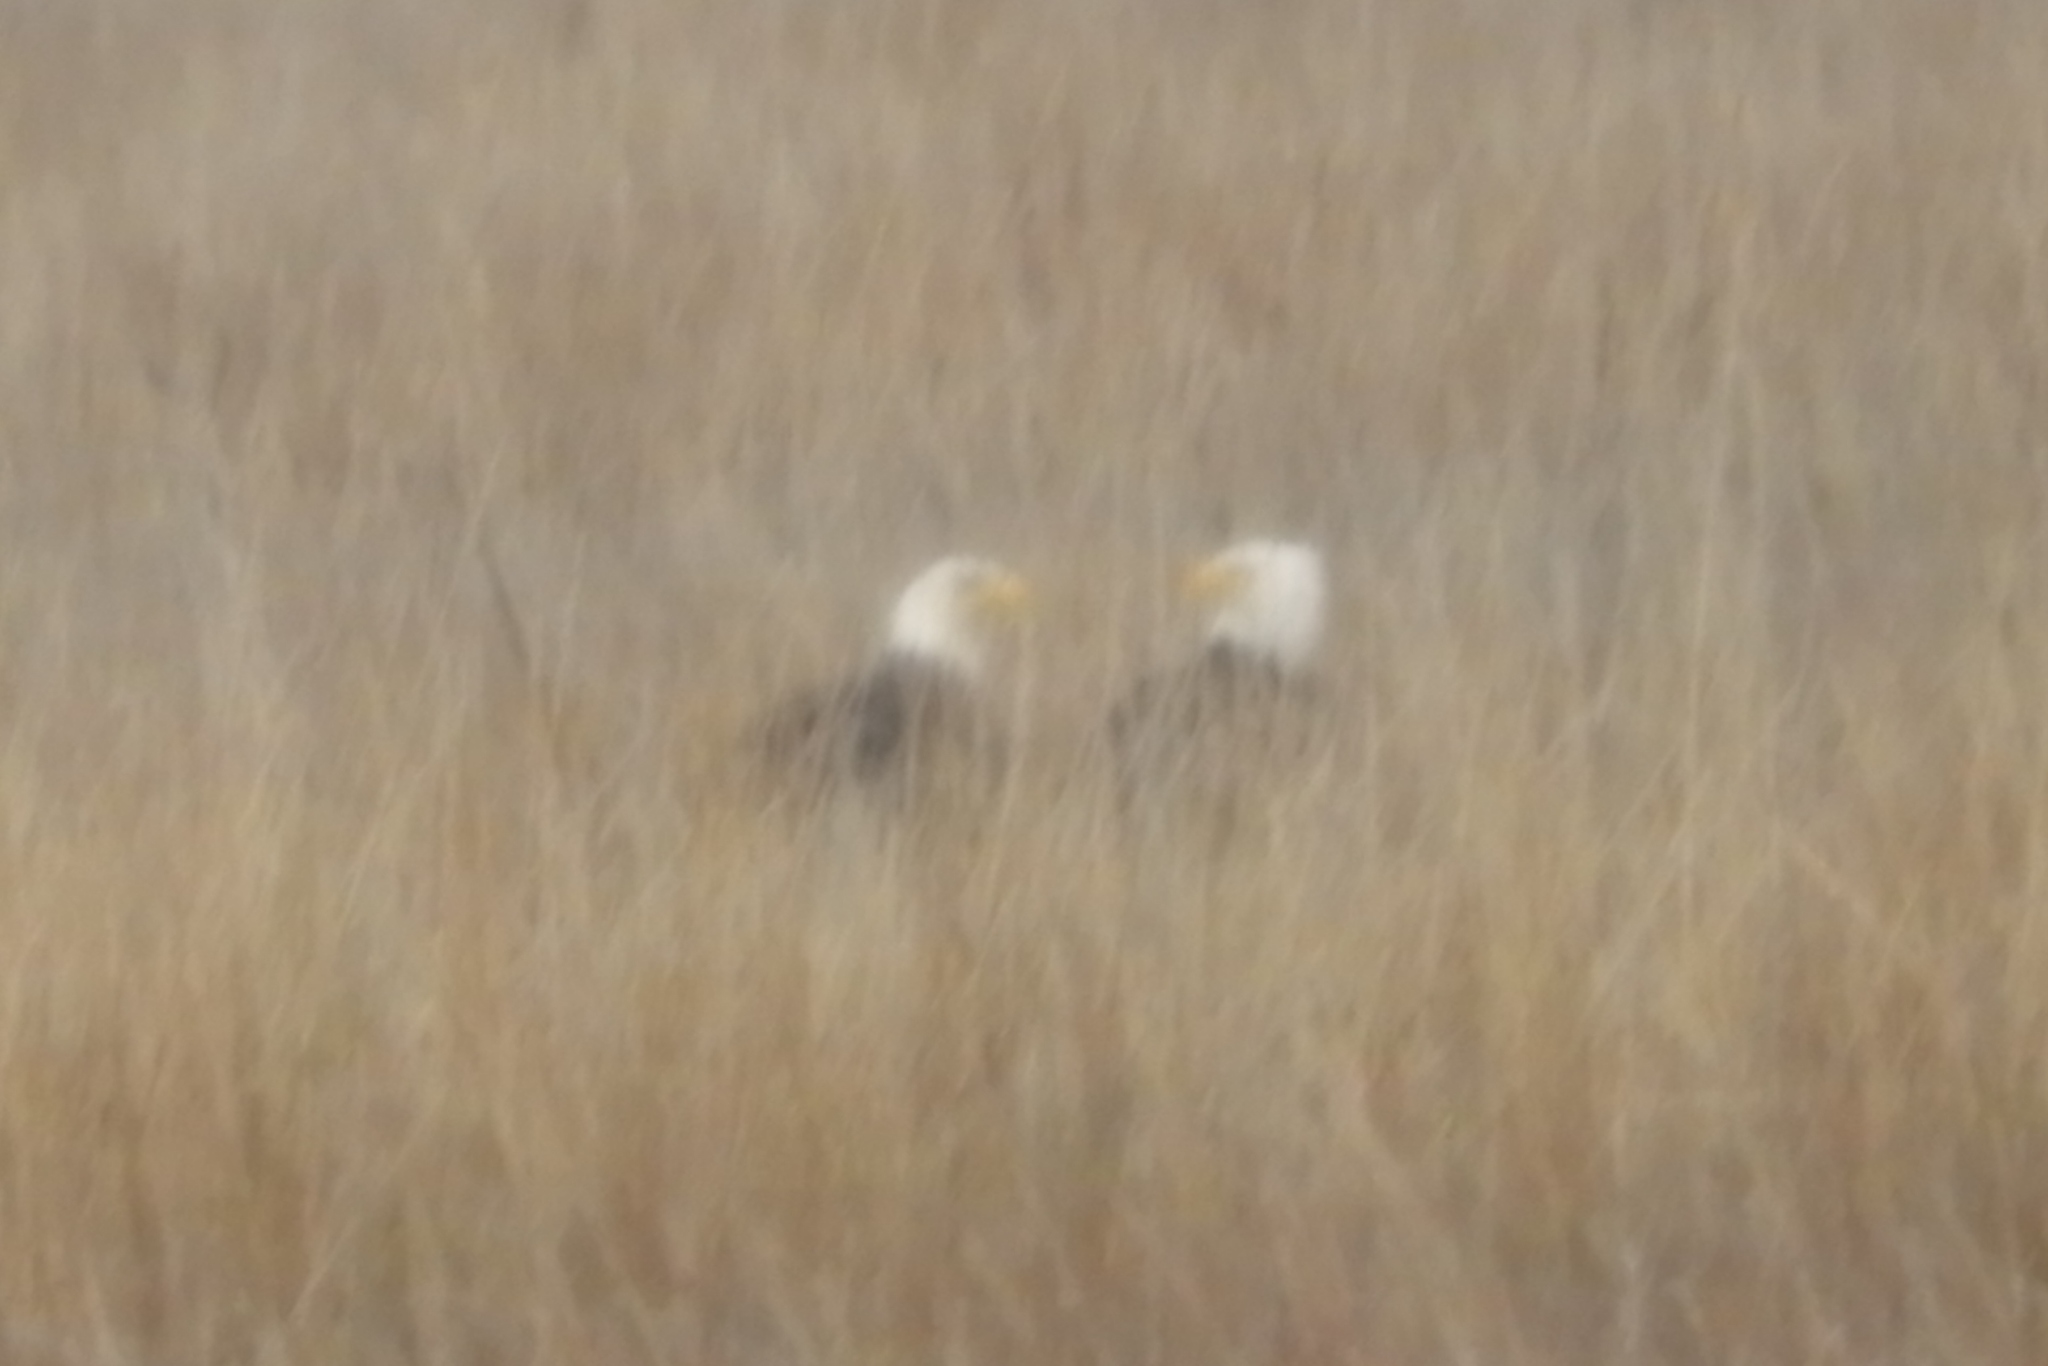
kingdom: Animalia
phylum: Chordata
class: Aves
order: Accipitriformes
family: Accipitridae
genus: Haliaeetus
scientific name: Haliaeetus leucocephalus
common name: Bald eagle
